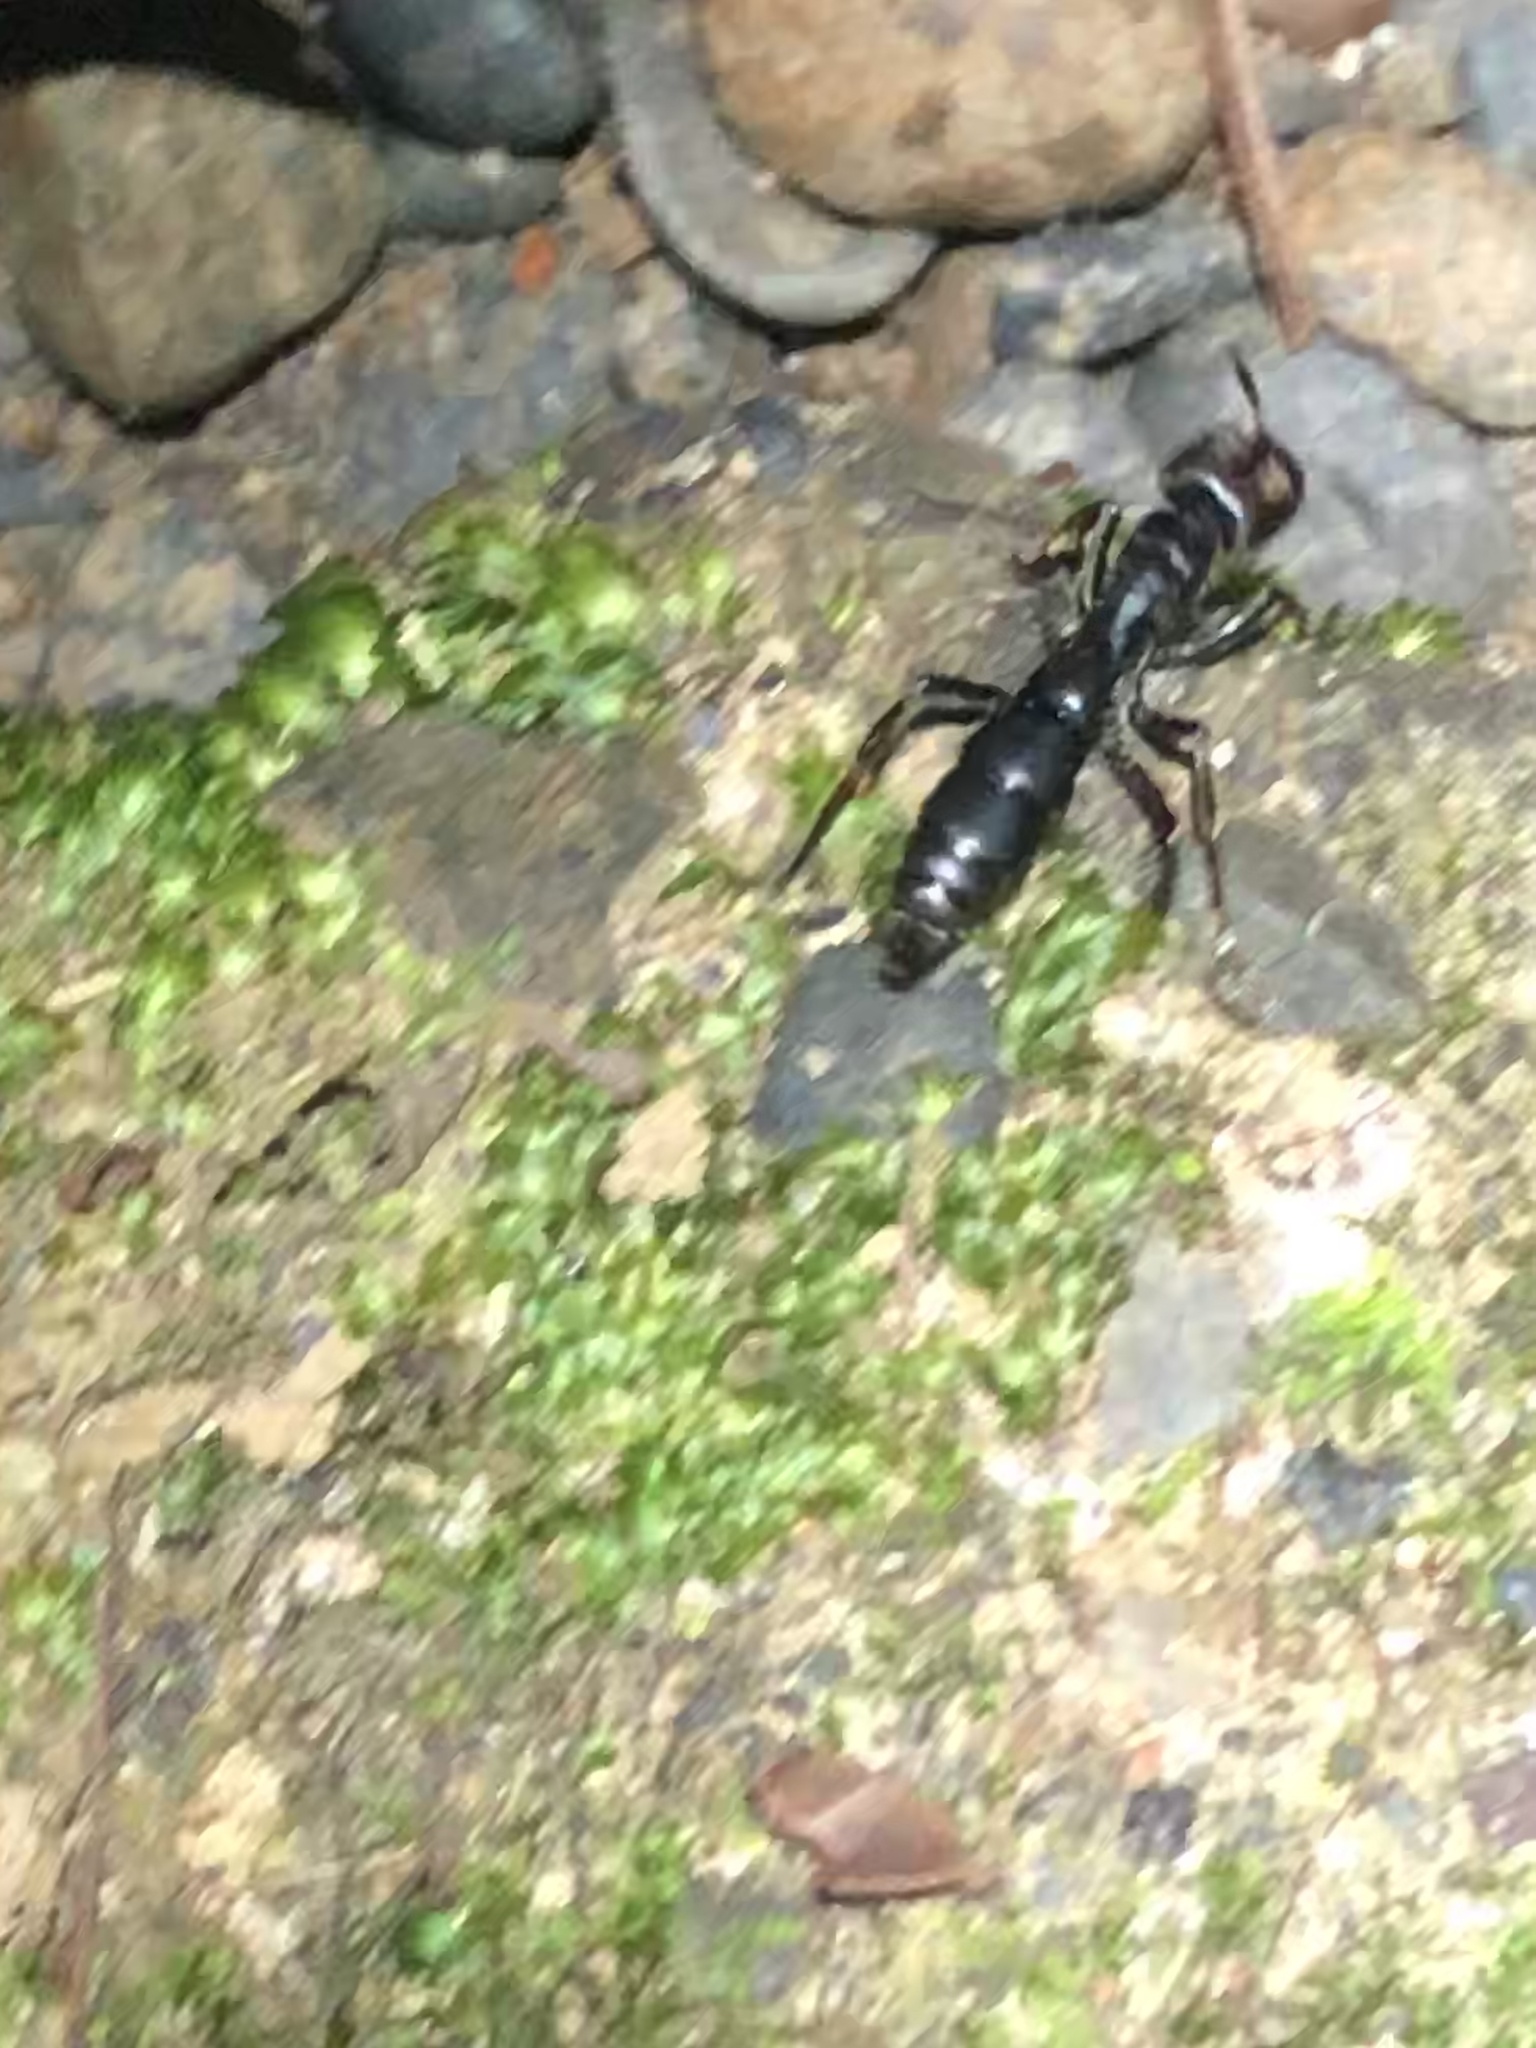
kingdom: Animalia
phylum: Arthropoda
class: Insecta
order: Hymenoptera
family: Formicidae
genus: Pachycondyla
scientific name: Pachycondyla crassinoda
